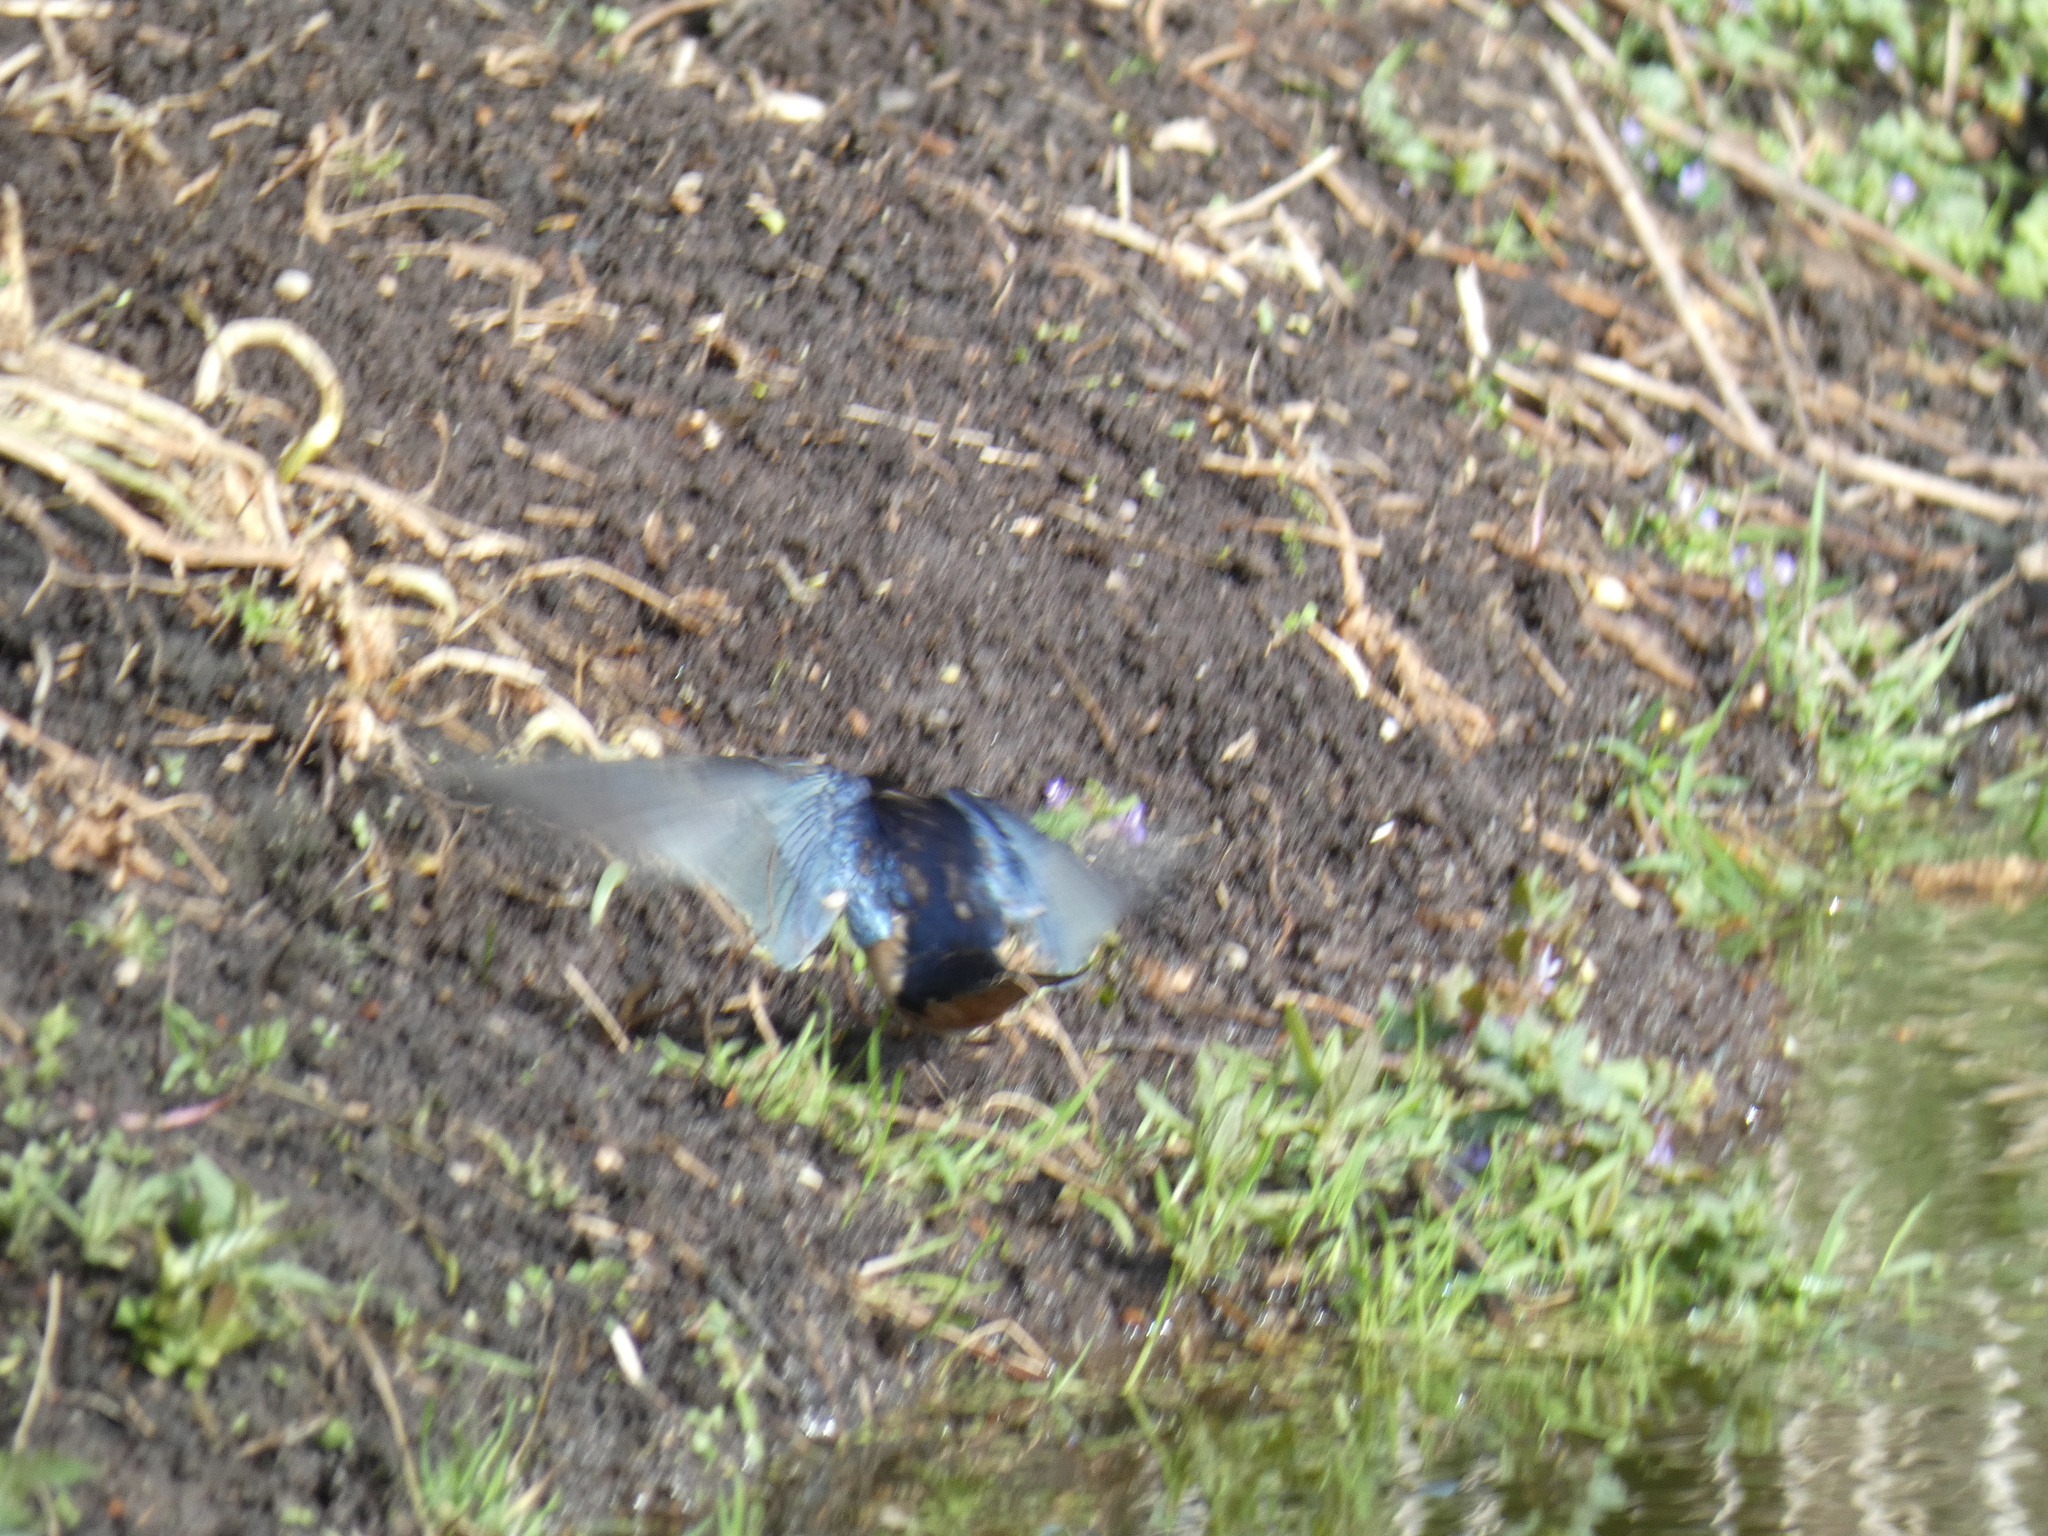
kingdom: Animalia
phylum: Chordata
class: Aves
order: Passeriformes
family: Hirundinidae
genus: Hirundo
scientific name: Hirundo rustica
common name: Barn swallow
